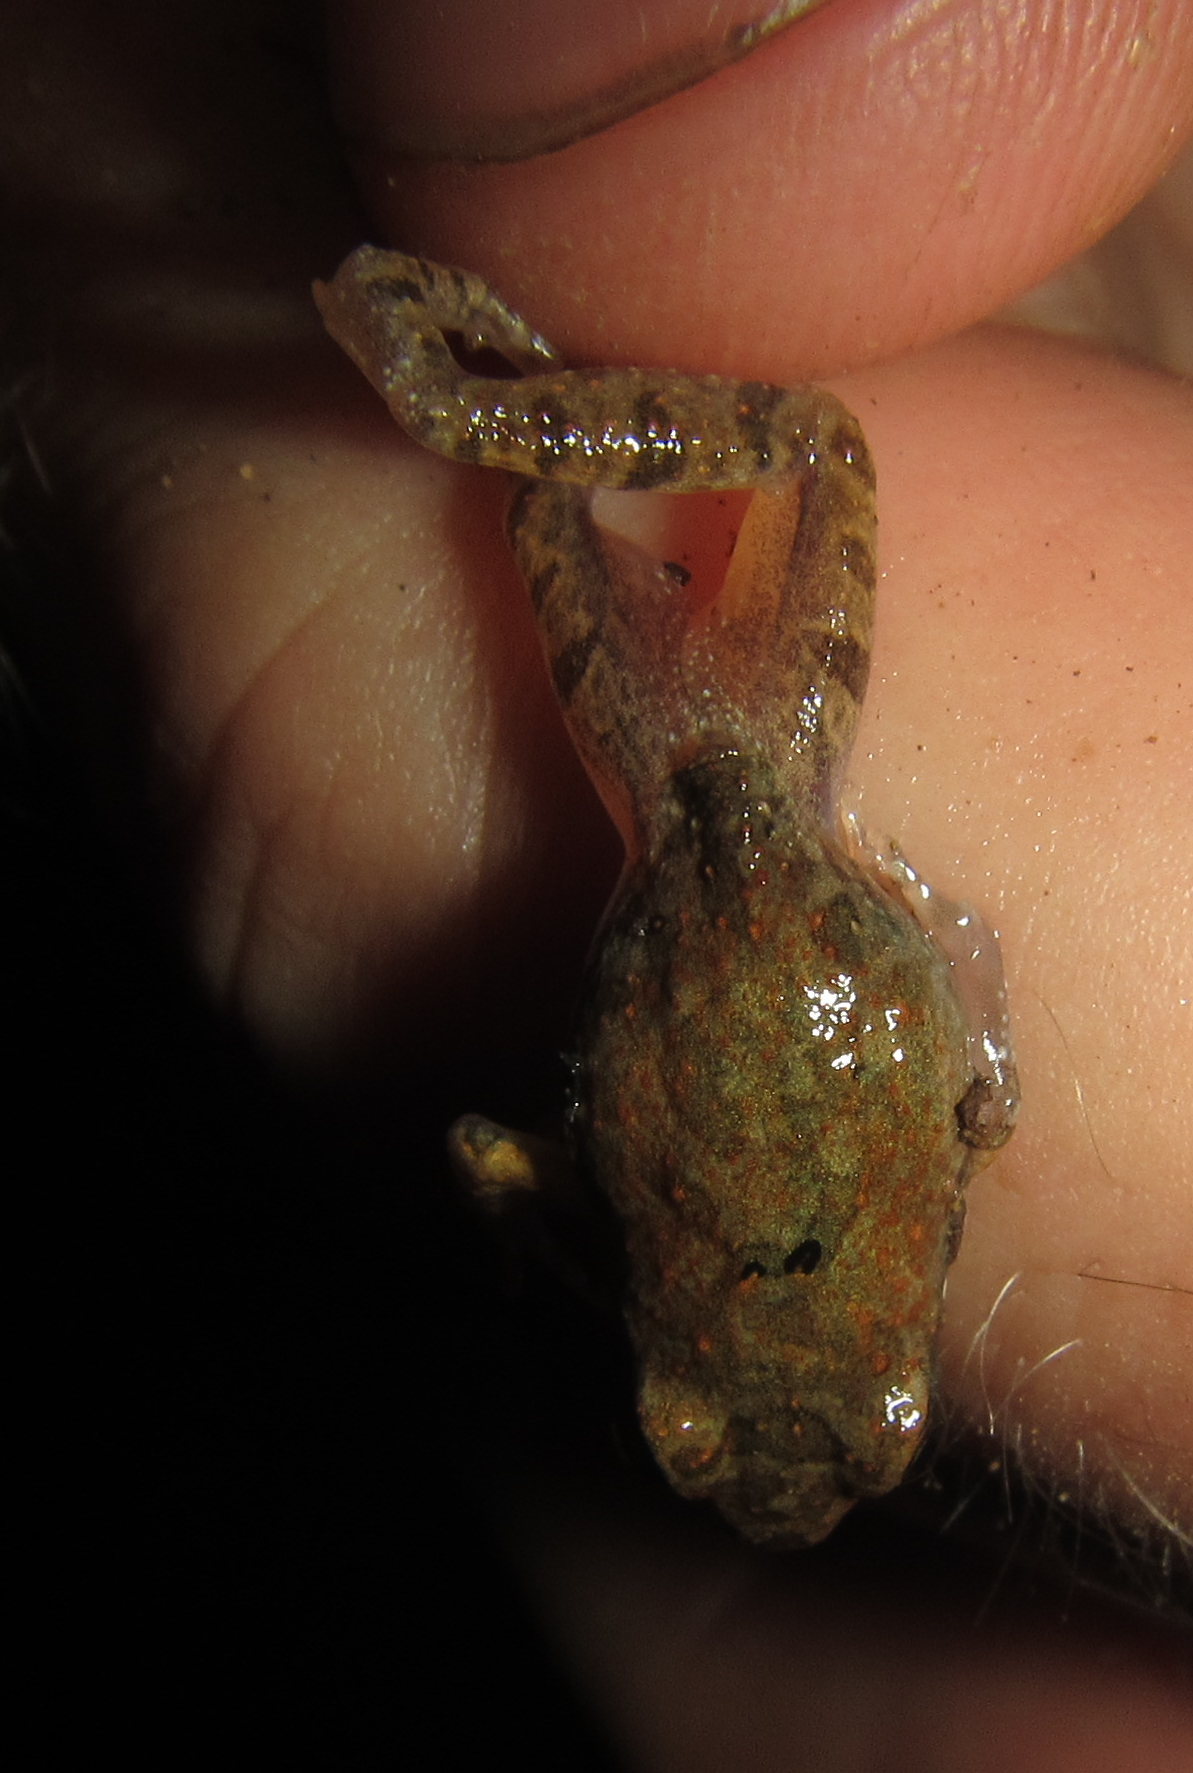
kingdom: Animalia
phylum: Chordata
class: Amphibia
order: Anura
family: Pyxicephalidae
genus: Tomopterna
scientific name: Tomopterna natalensis
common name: Natal sand frog
